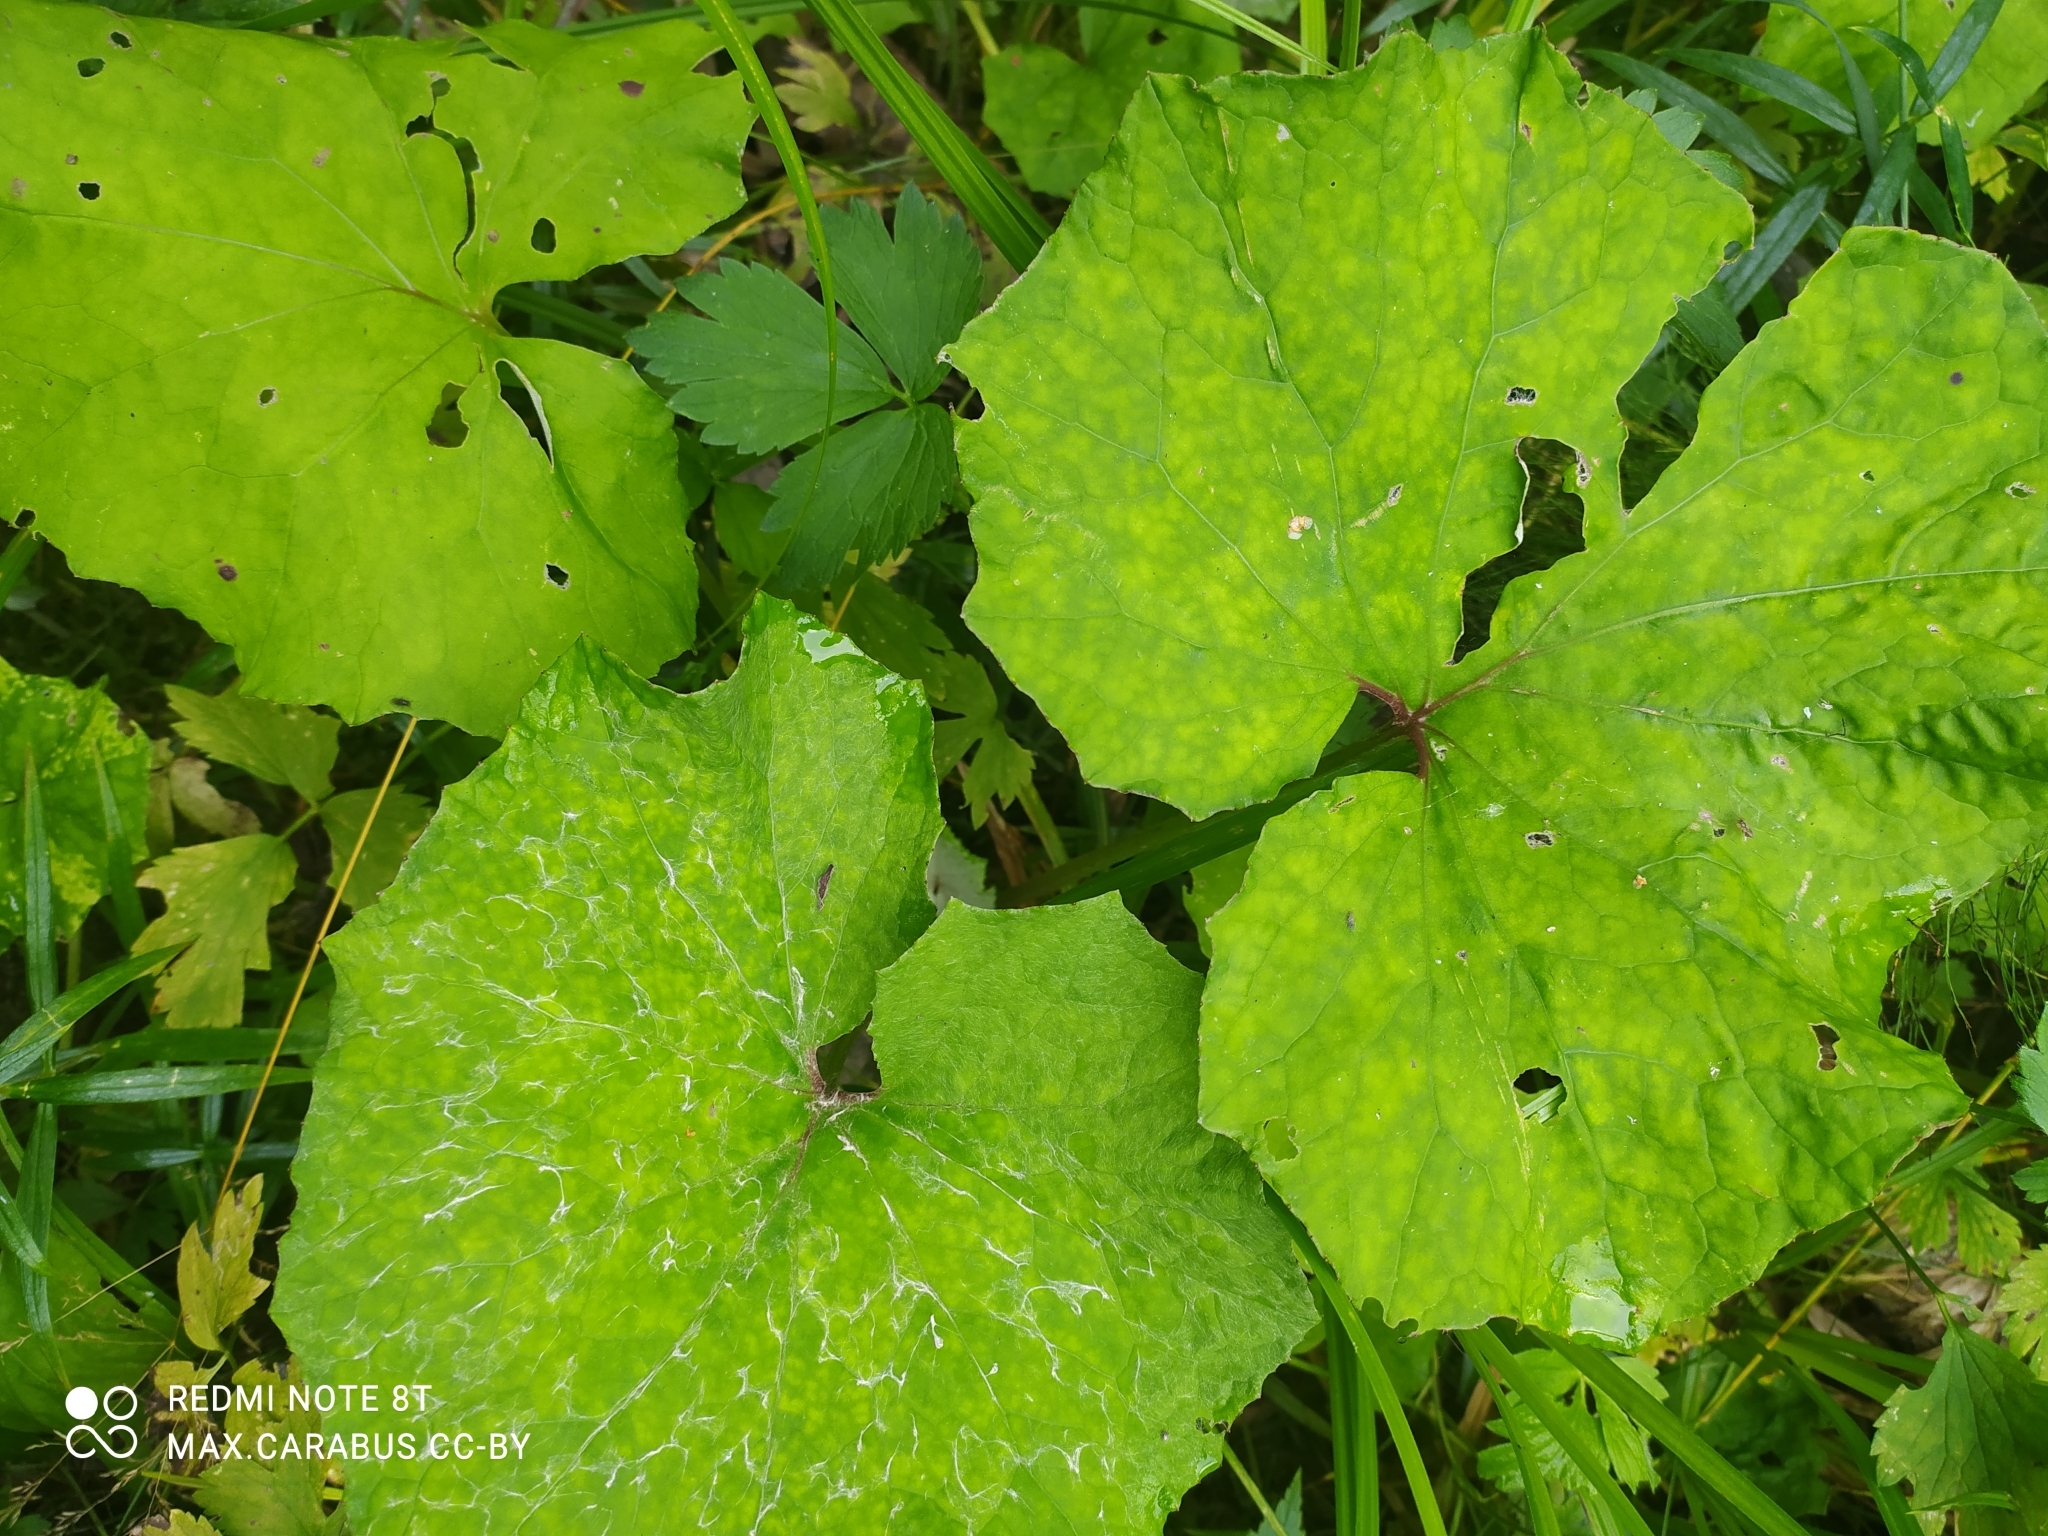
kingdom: Plantae
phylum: Tracheophyta
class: Magnoliopsida
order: Asterales
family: Asteraceae
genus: Tussilago
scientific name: Tussilago farfara
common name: Coltsfoot
